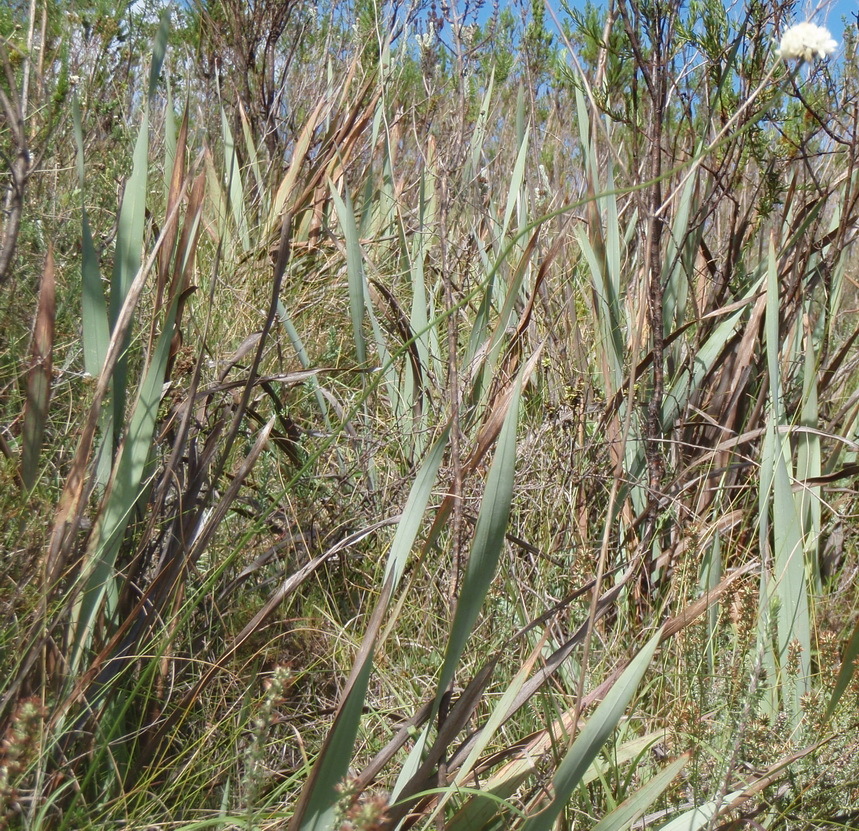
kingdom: Plantae
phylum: Tracheophyta
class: Magnoliopsida
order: Dipsacales
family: Caprifoliaceae
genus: Cephalaria
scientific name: Cephalaria humilis
